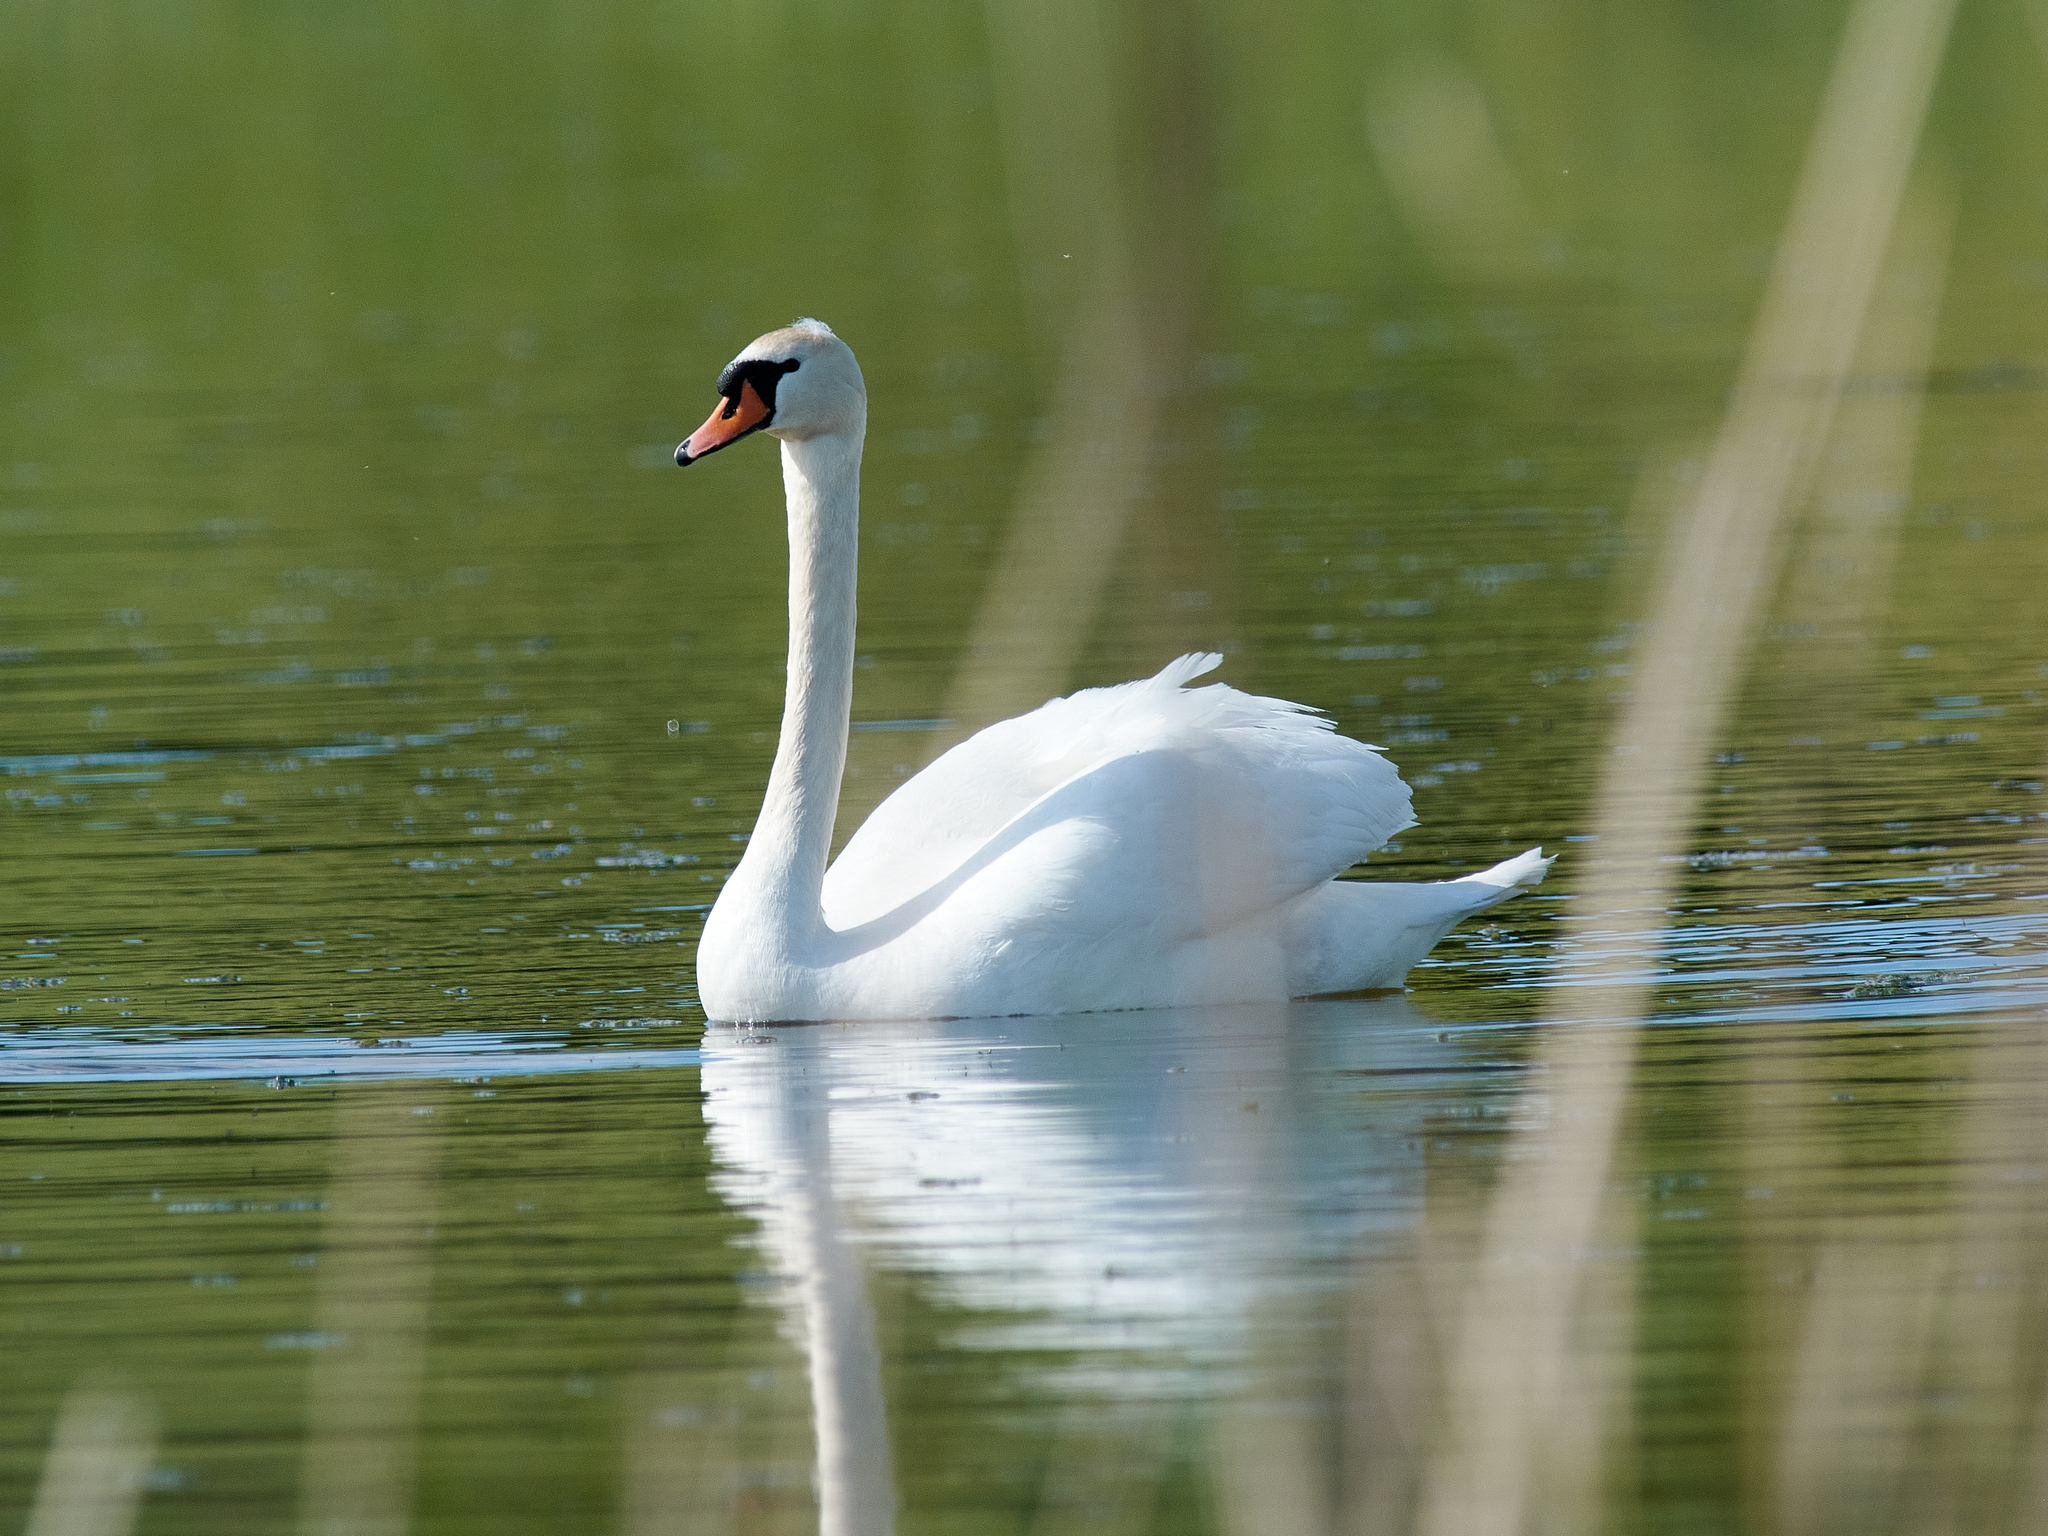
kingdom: Animalia
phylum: Chordata
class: Aves
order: Anseriformes
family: Anatidae
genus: Cygnus
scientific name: Cygnus olor
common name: Mute swan
